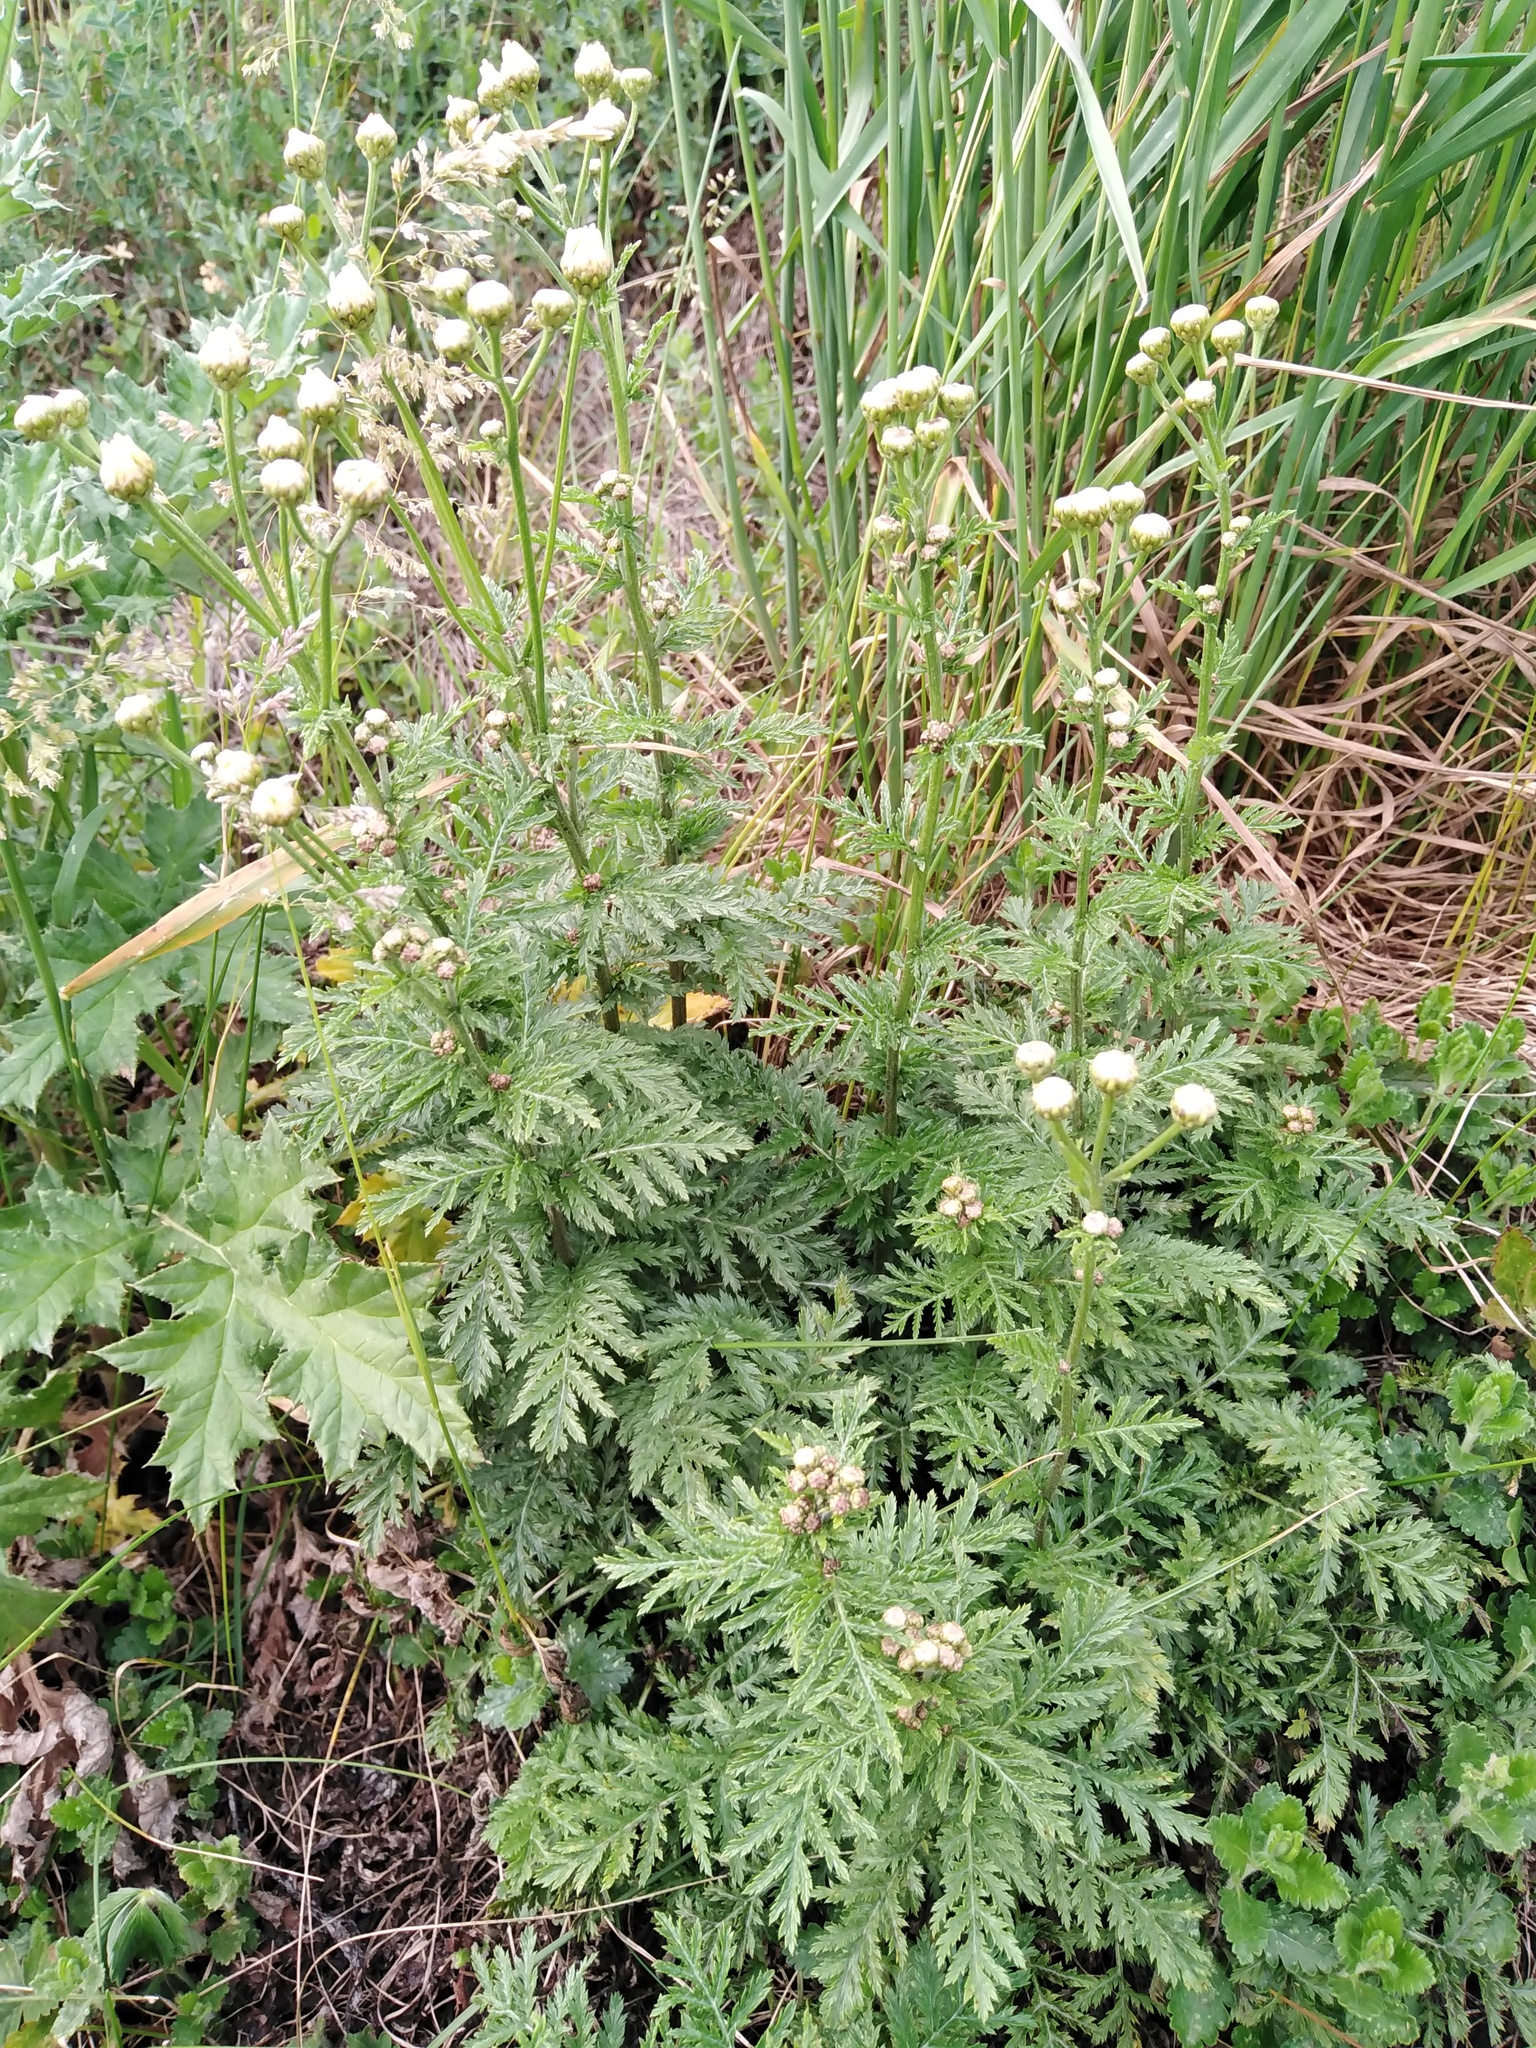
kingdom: Plantae
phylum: Tracheophyta
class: Magnoliopsida
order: Asterales
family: Asteraceae
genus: Tanacetum
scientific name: Tanacetum corymbosum
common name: Scentless feverfew
